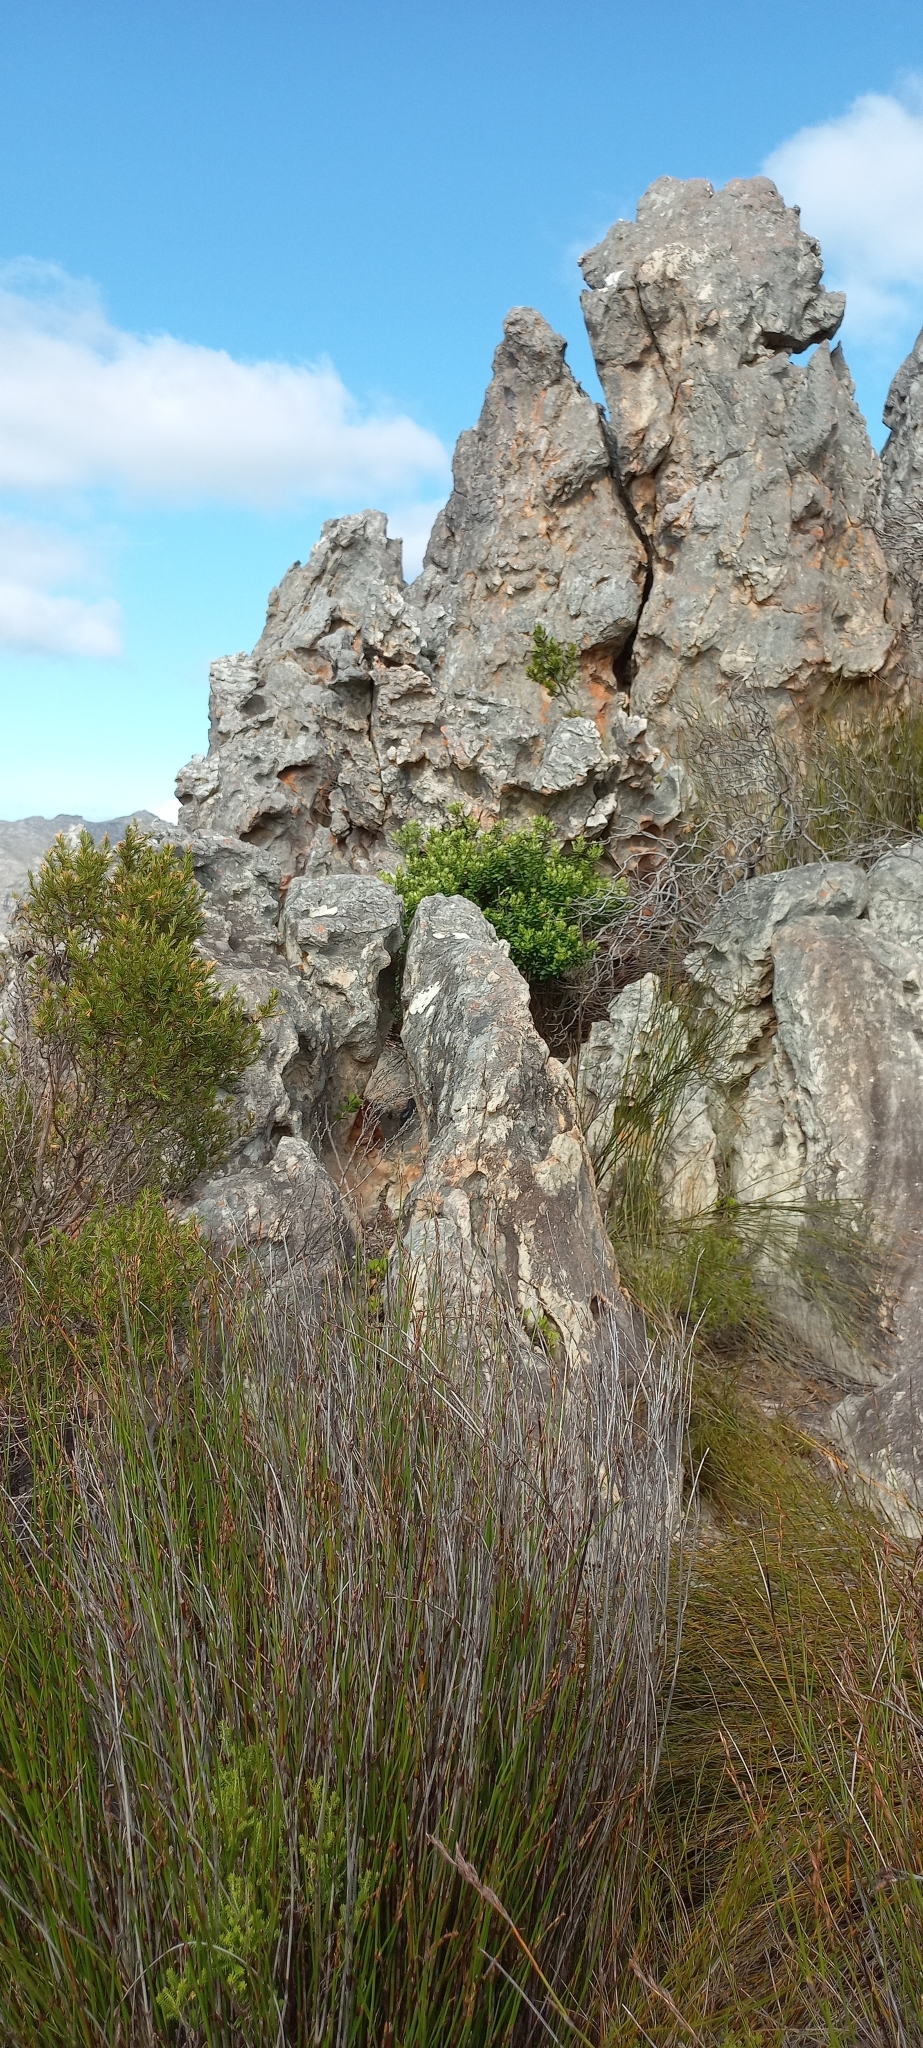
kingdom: Animalia
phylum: Chordata
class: Aves
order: Piciformes
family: Picidae
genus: Geocolaptes
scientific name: Geocolaptes olivaceus
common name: Ground woodpecker
